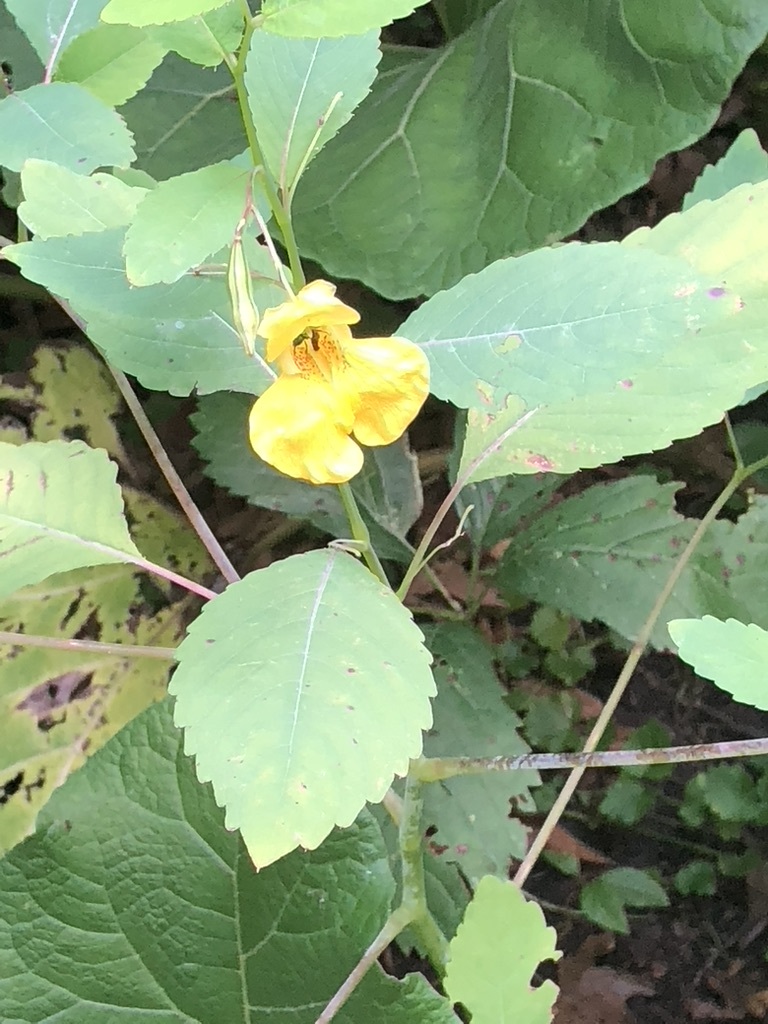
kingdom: Plantae
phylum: Tracheophyta
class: Magnoliopsida
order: Ericales
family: Balsaminaceae
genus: Impatiens
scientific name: Impatiens pallida
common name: Pale snapweed
